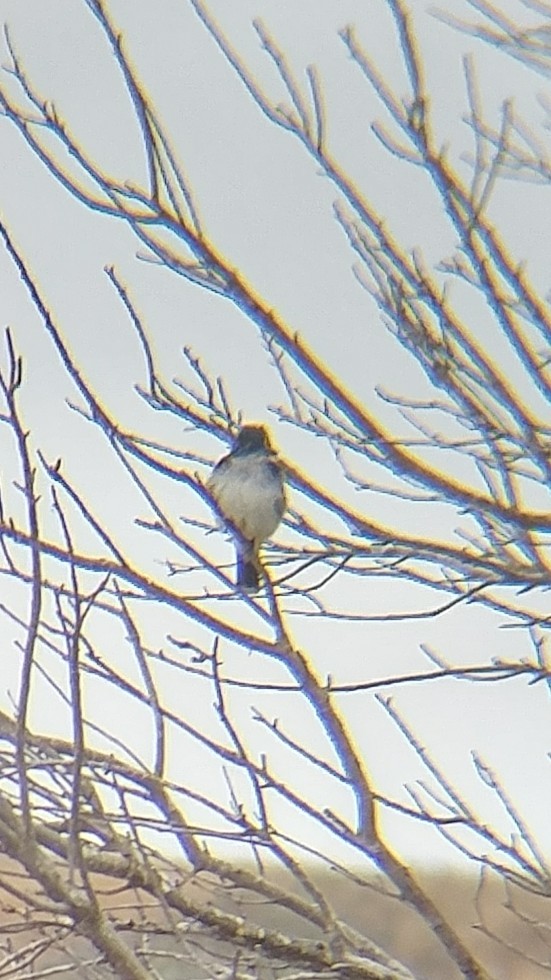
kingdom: Animalia
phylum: Chordata
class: Aves
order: Passeriformes
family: Tyrannidae
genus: Tyrannus
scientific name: Tyrannus tyrannus
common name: Eastern kingbird
